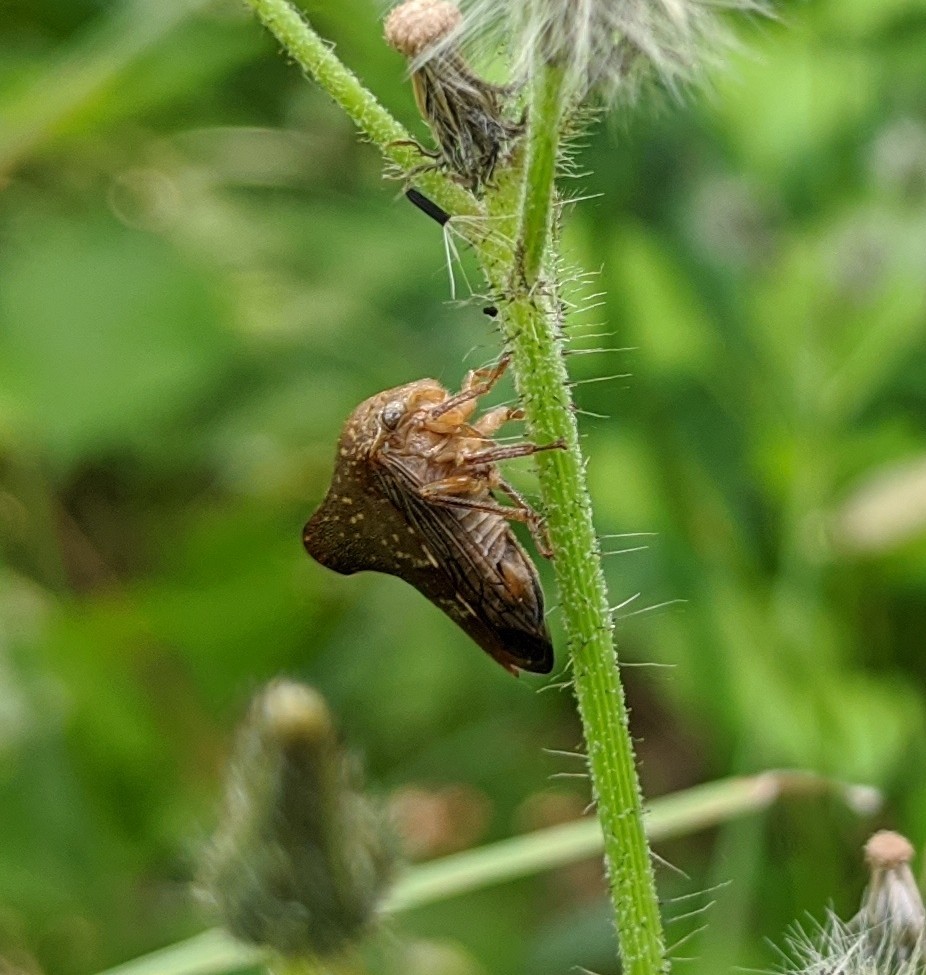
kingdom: Animalia
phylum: Arthropoda
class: Insecta
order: Hemiptera
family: Membracidae
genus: Telamona
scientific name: Telamona monticola
